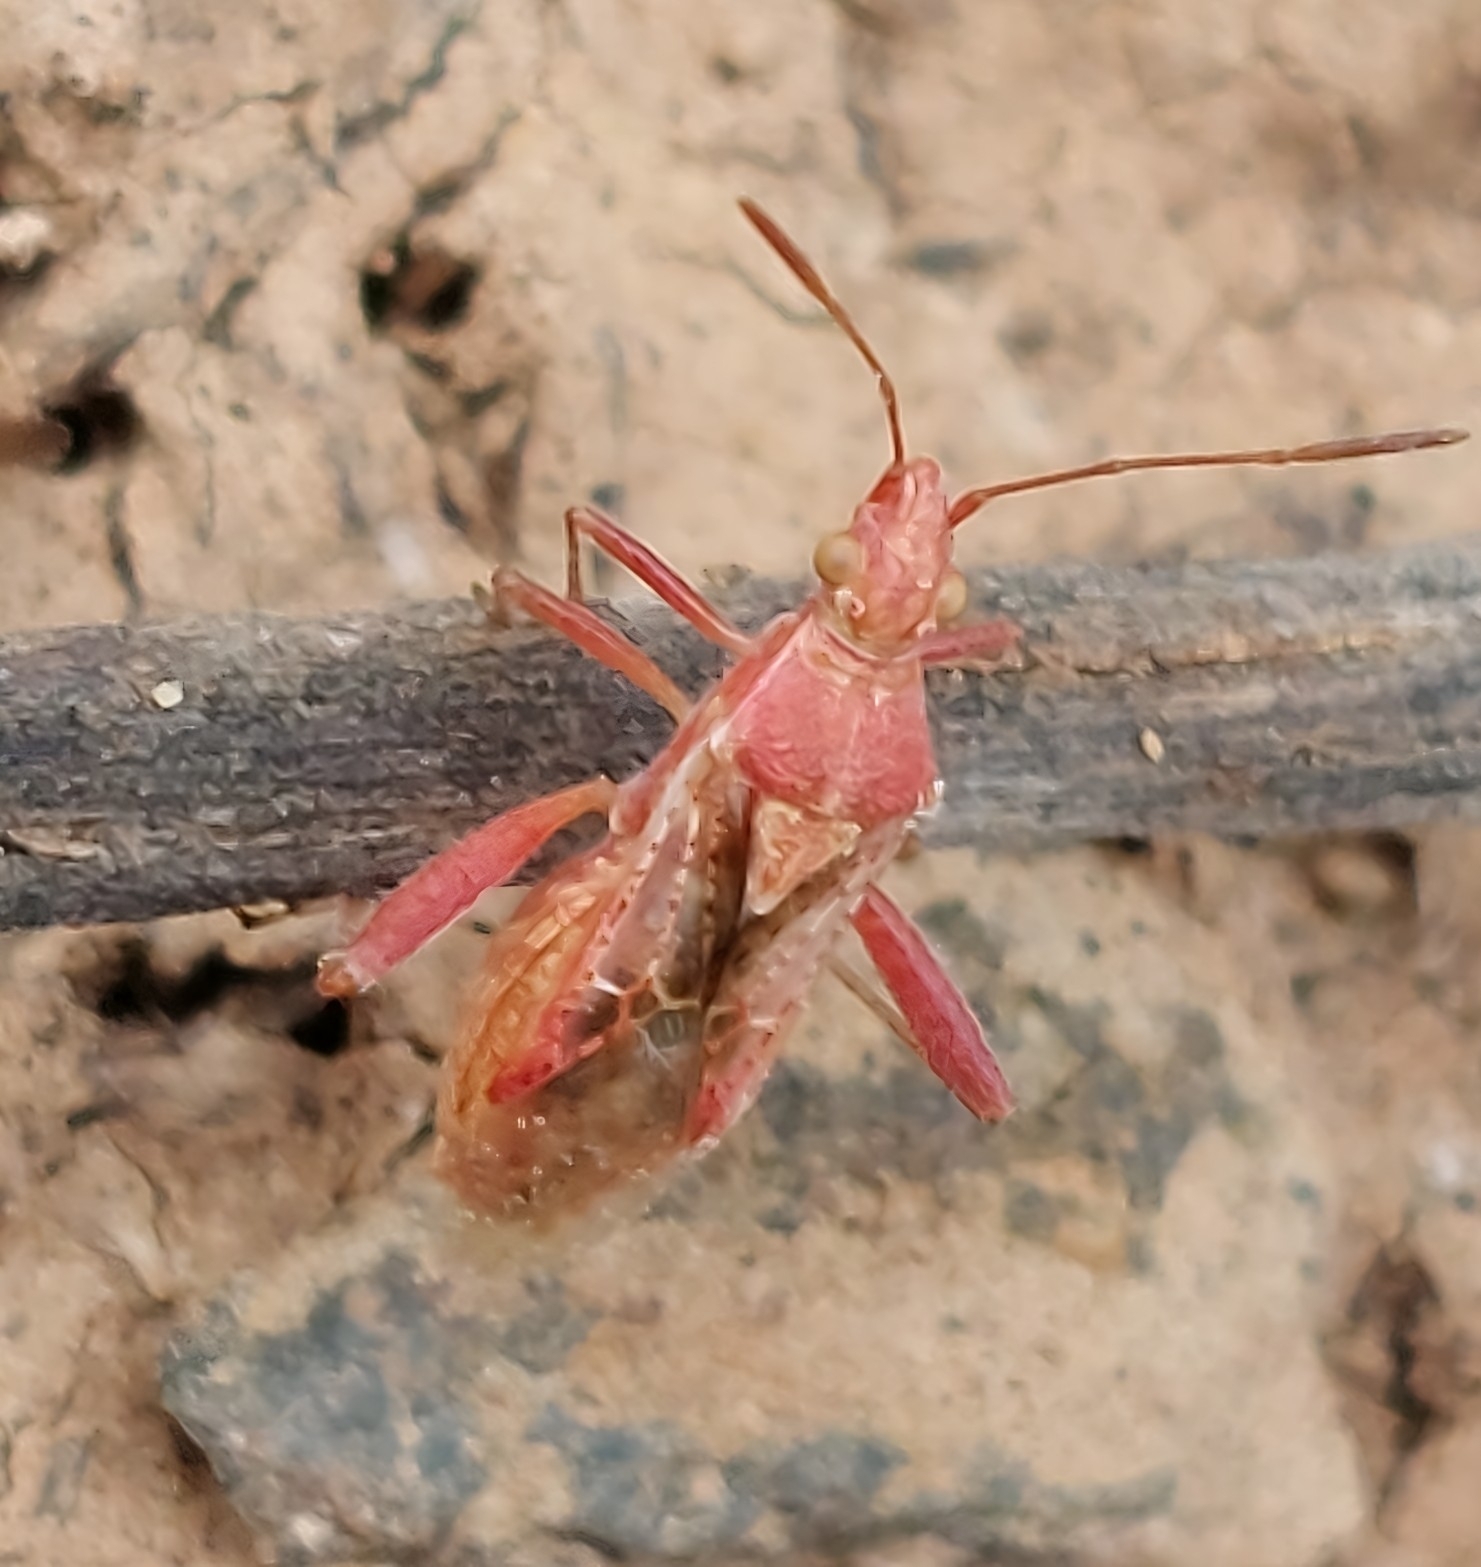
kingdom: Animalia
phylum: Arthropoda
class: Insecta
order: Hemiptera
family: Rhopalidae
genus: Harmostes
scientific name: Harmostes
